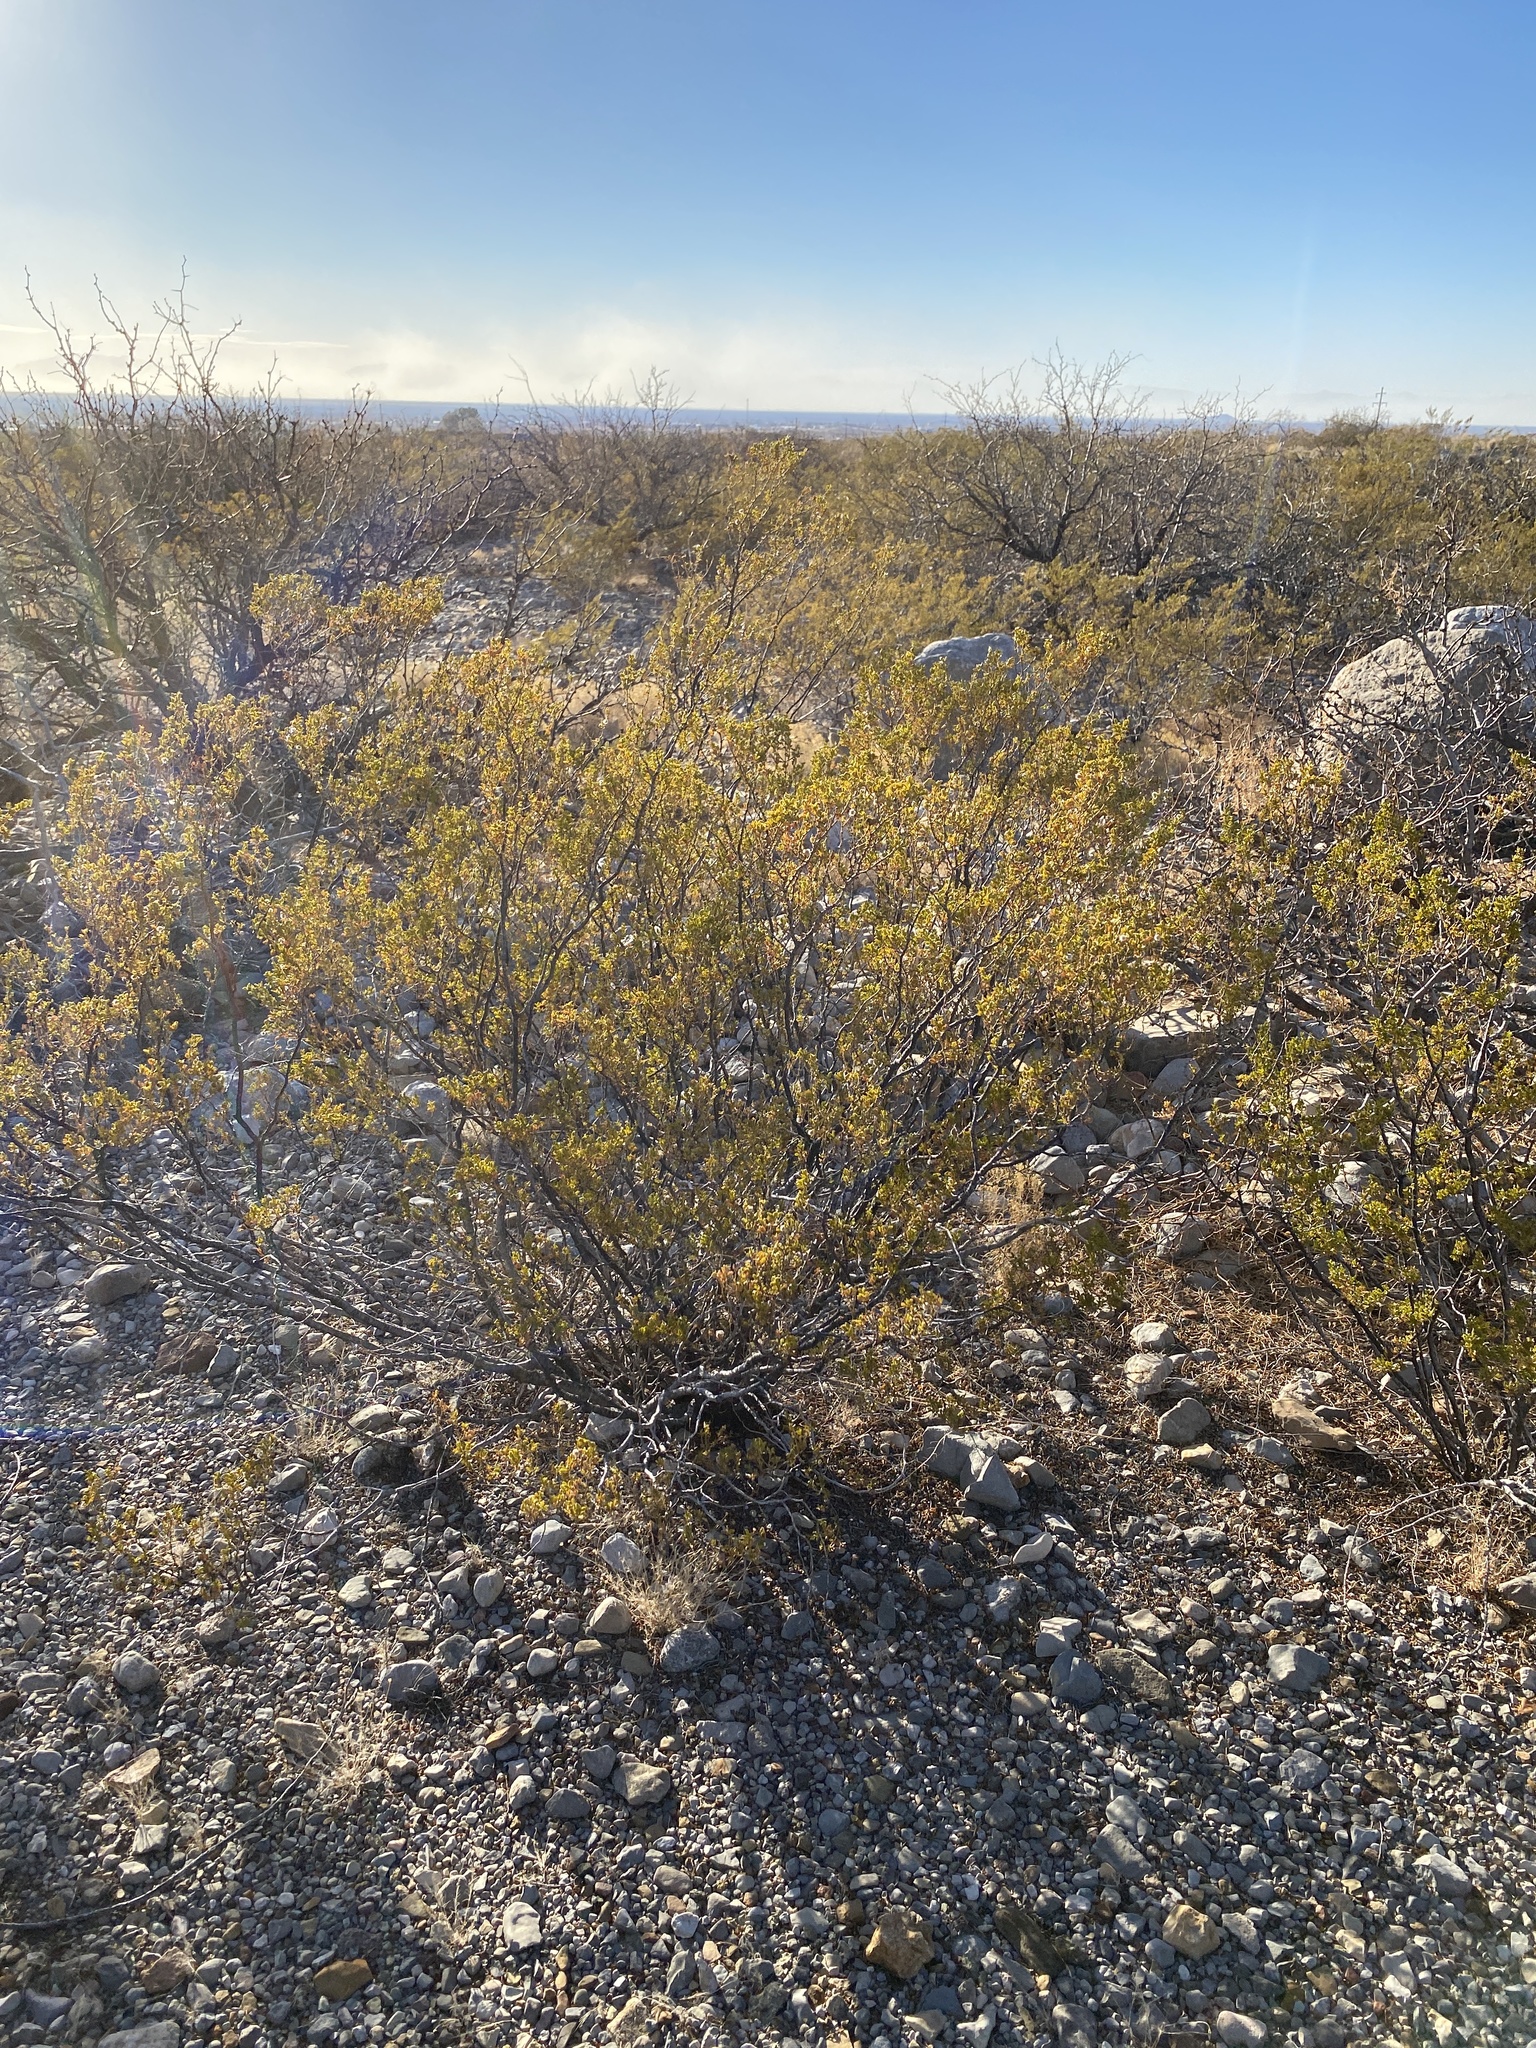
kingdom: Plantae
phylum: Tracheophyta
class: Magnoliopsida
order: Zygophyllales
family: Zygophyllaceae
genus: Larrea
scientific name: Larrea tridentata
